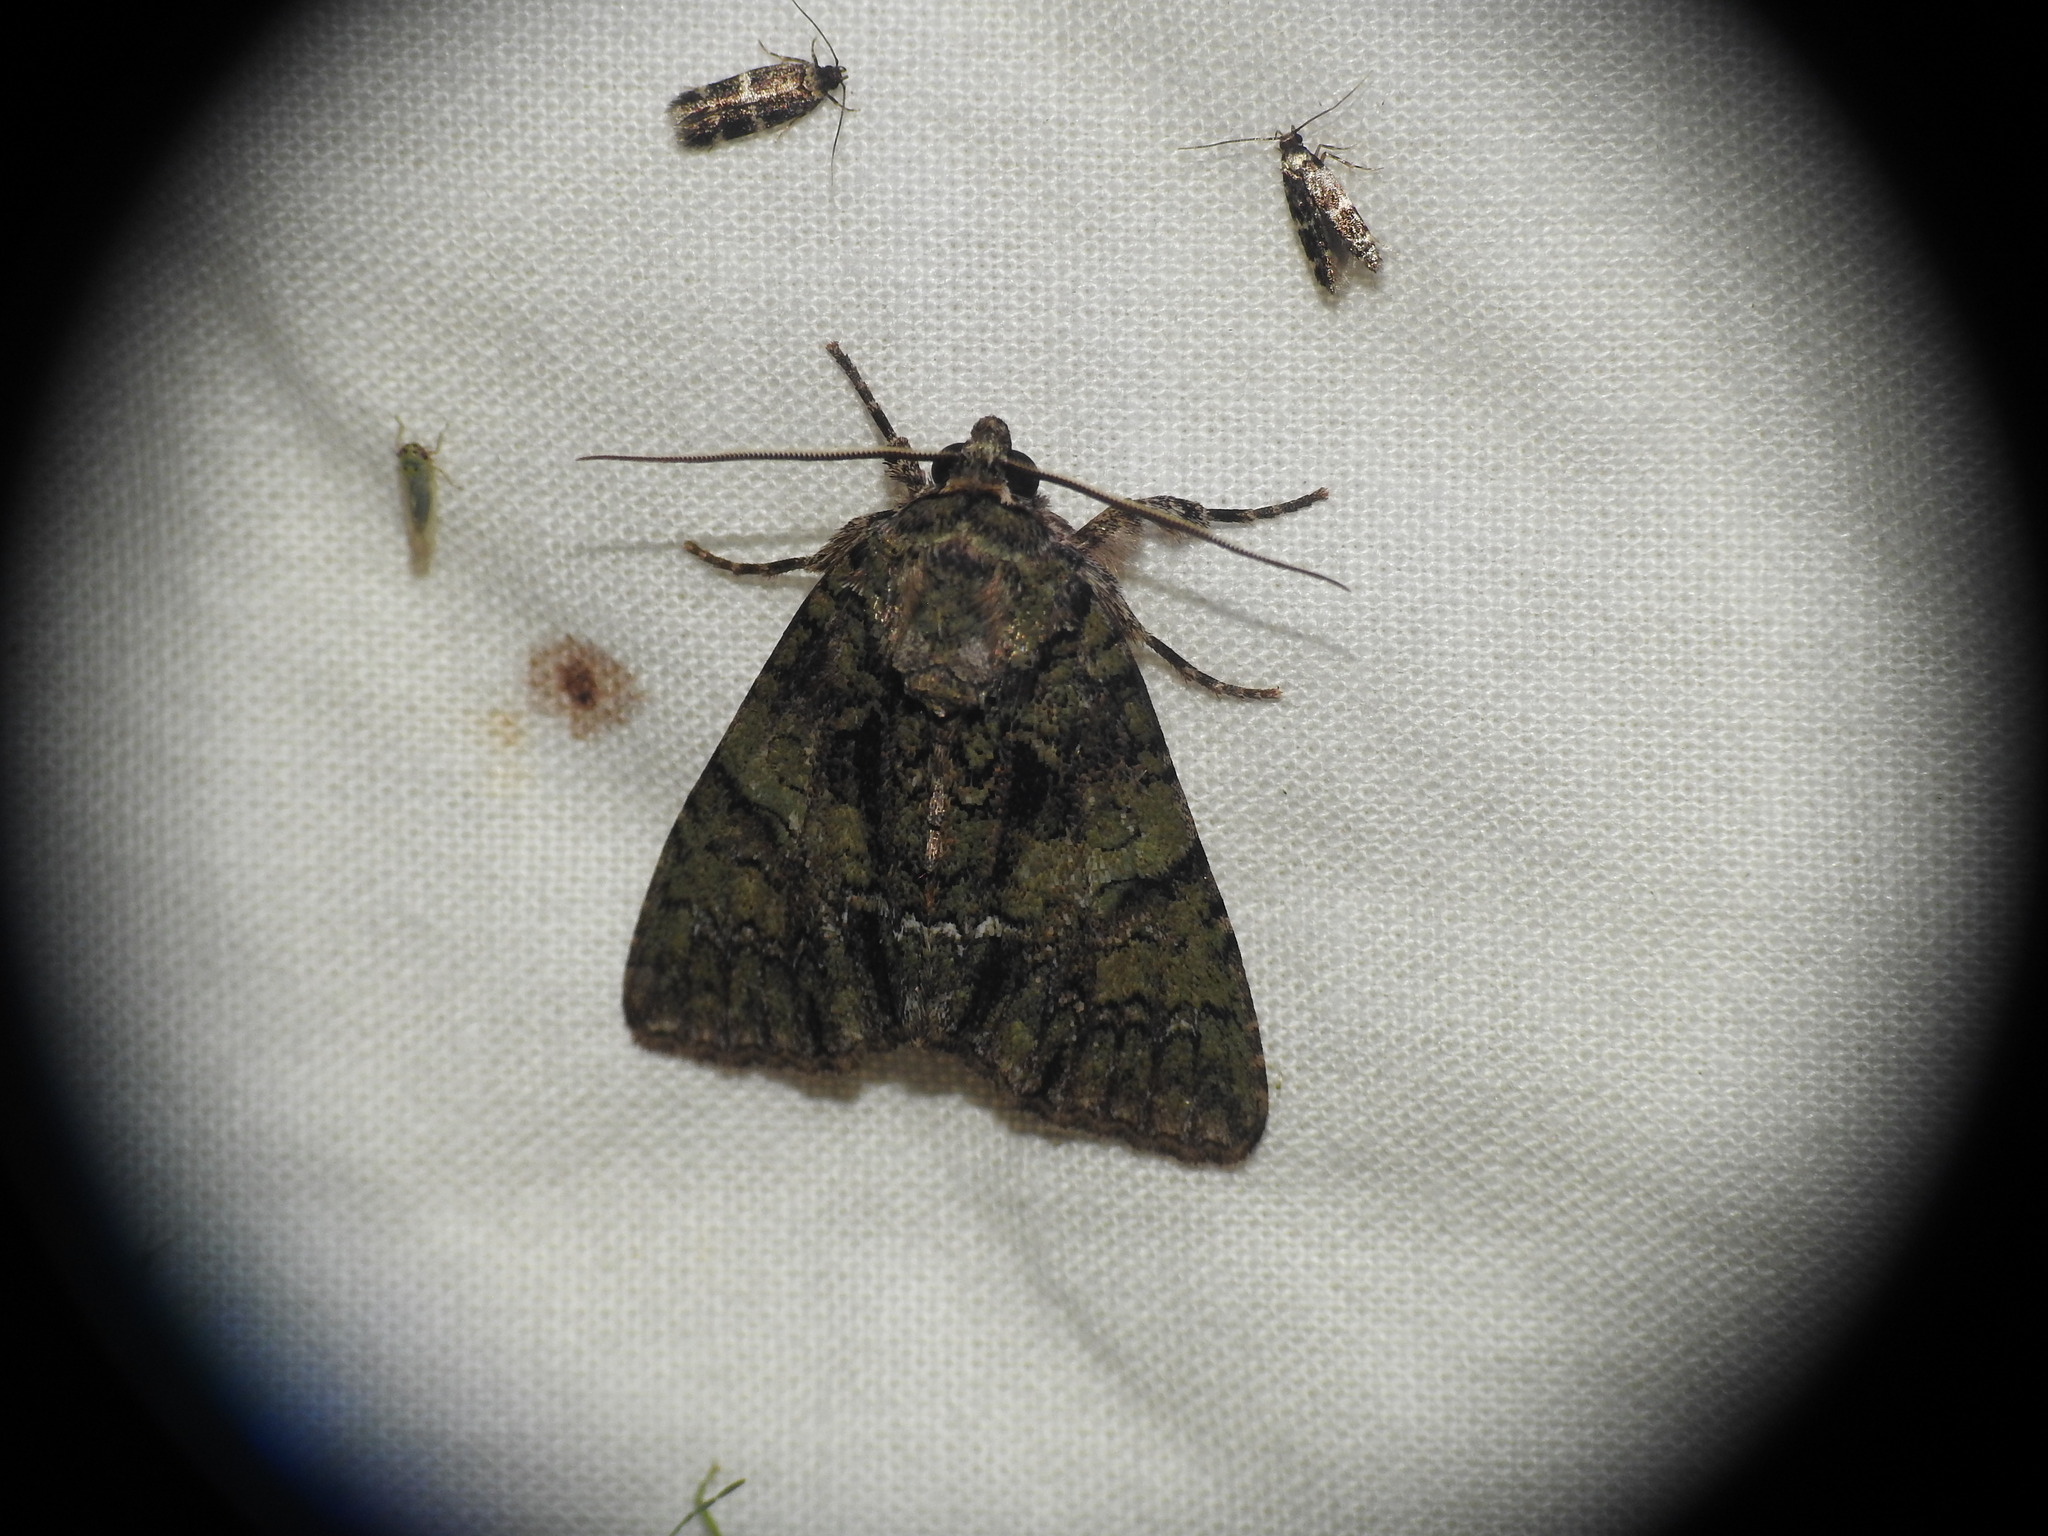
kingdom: Animalia
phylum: Arthropoda
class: Insecta
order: Lepidoptera
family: Noctuidae
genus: Polyphaenis
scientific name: Polyphaenis sericata
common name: Guernsey underwing
